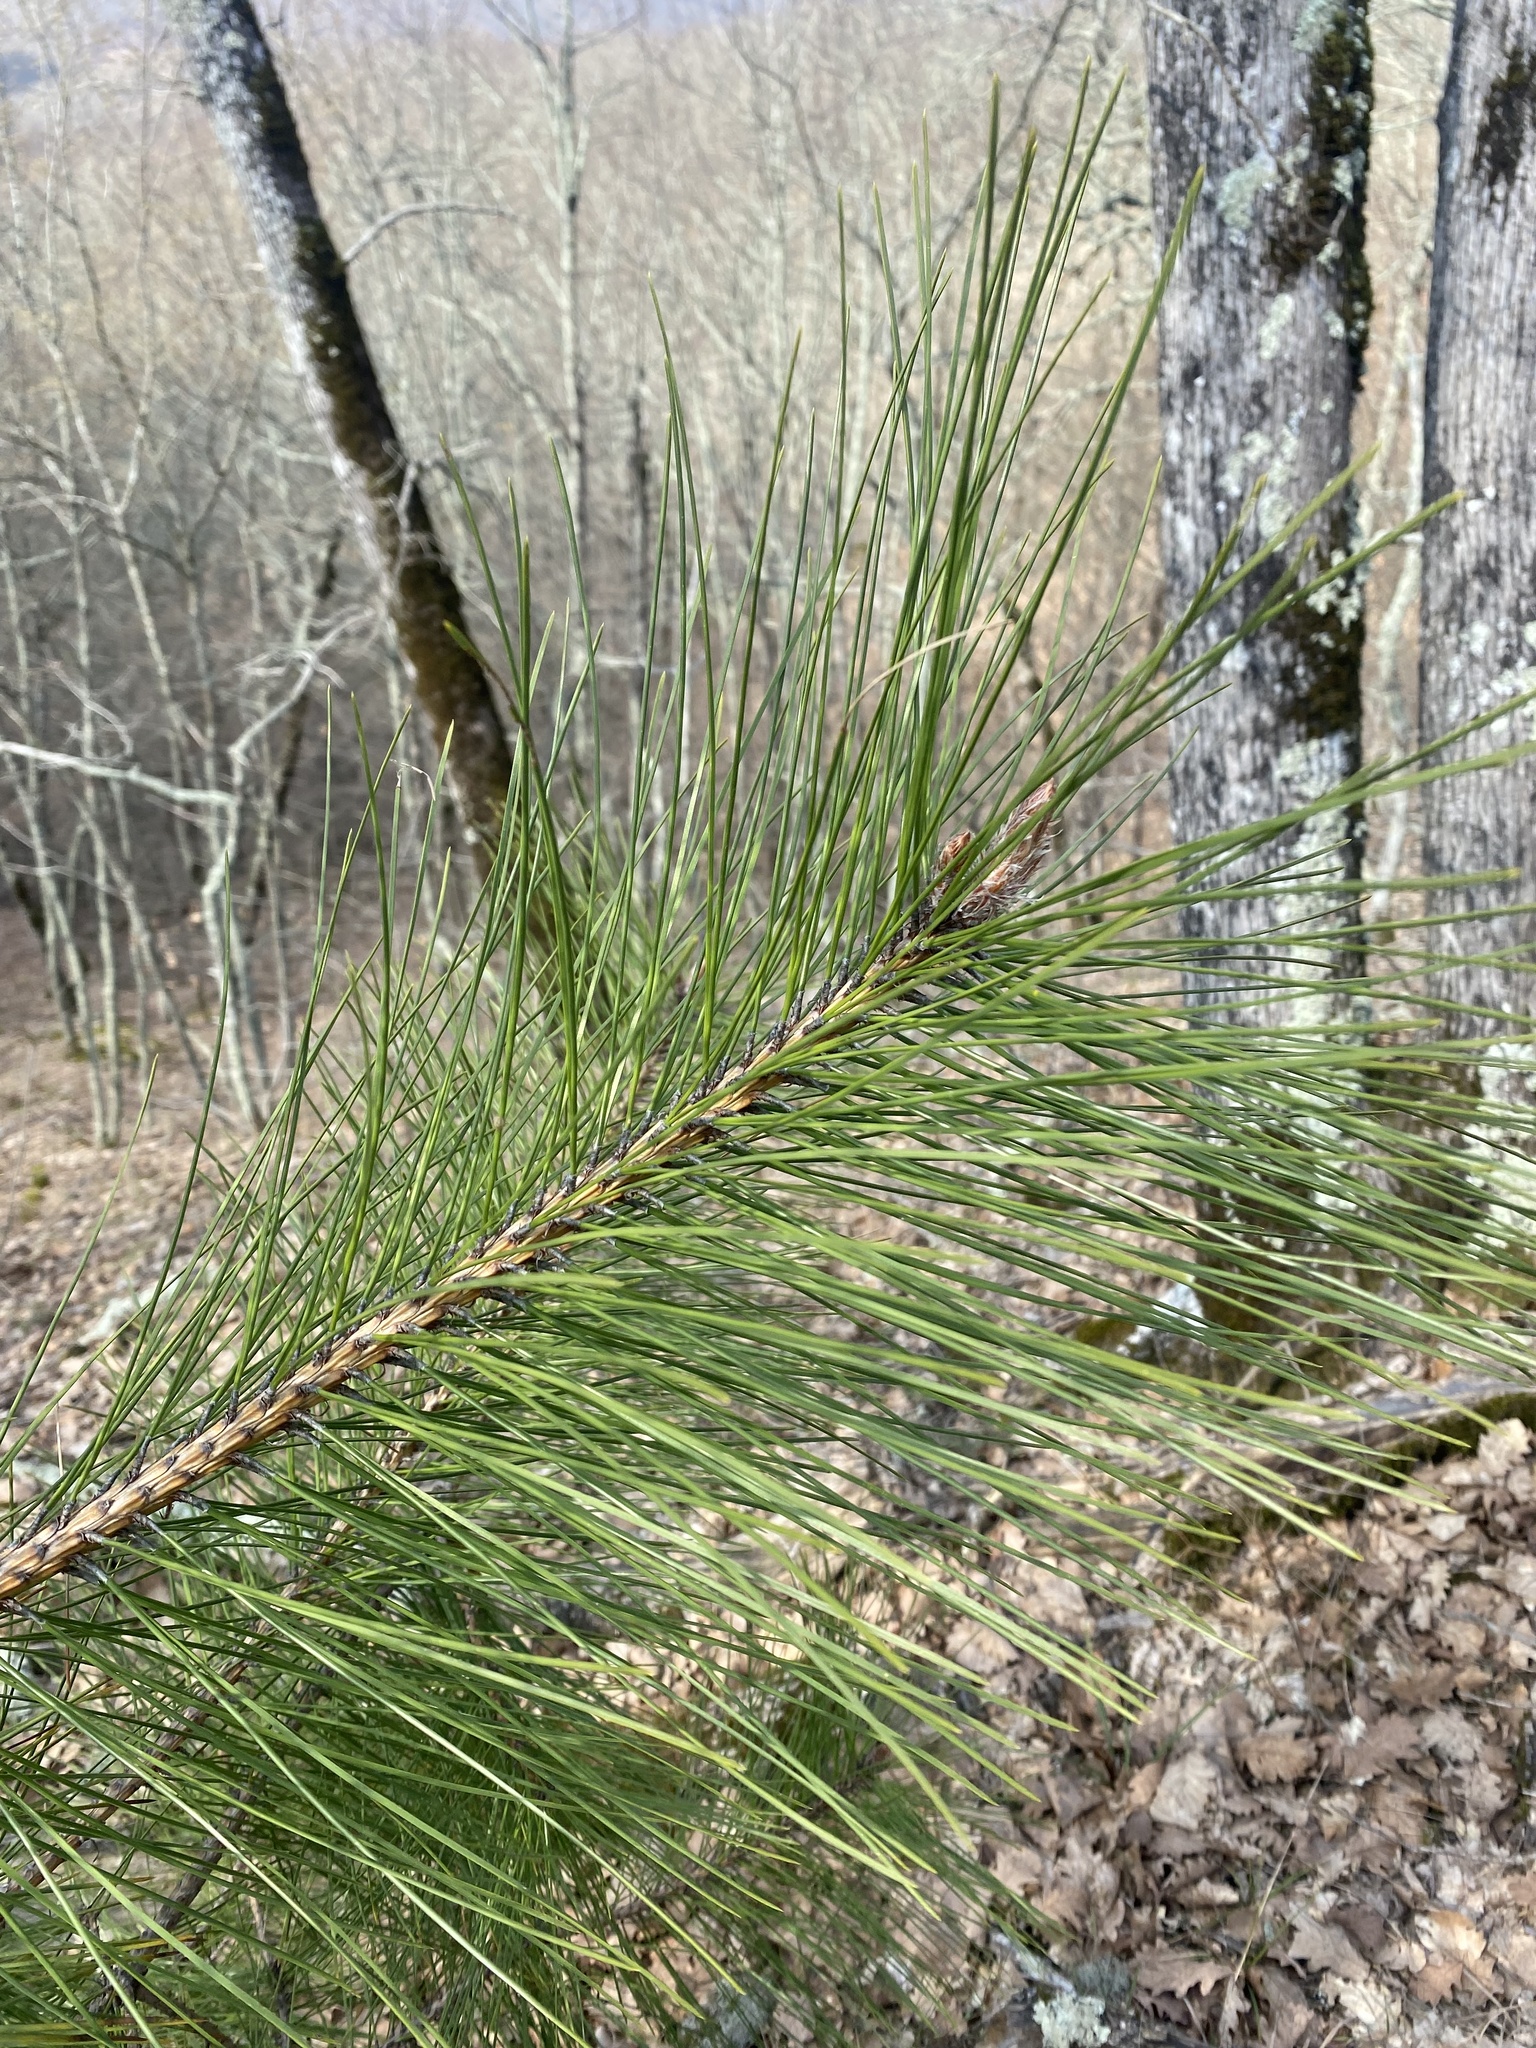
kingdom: Plantae
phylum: Tracheophyta
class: Pinopsida
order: Pinales
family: Pinaceae
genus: Pinus
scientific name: Pinus sylvestris
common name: Scots pine
